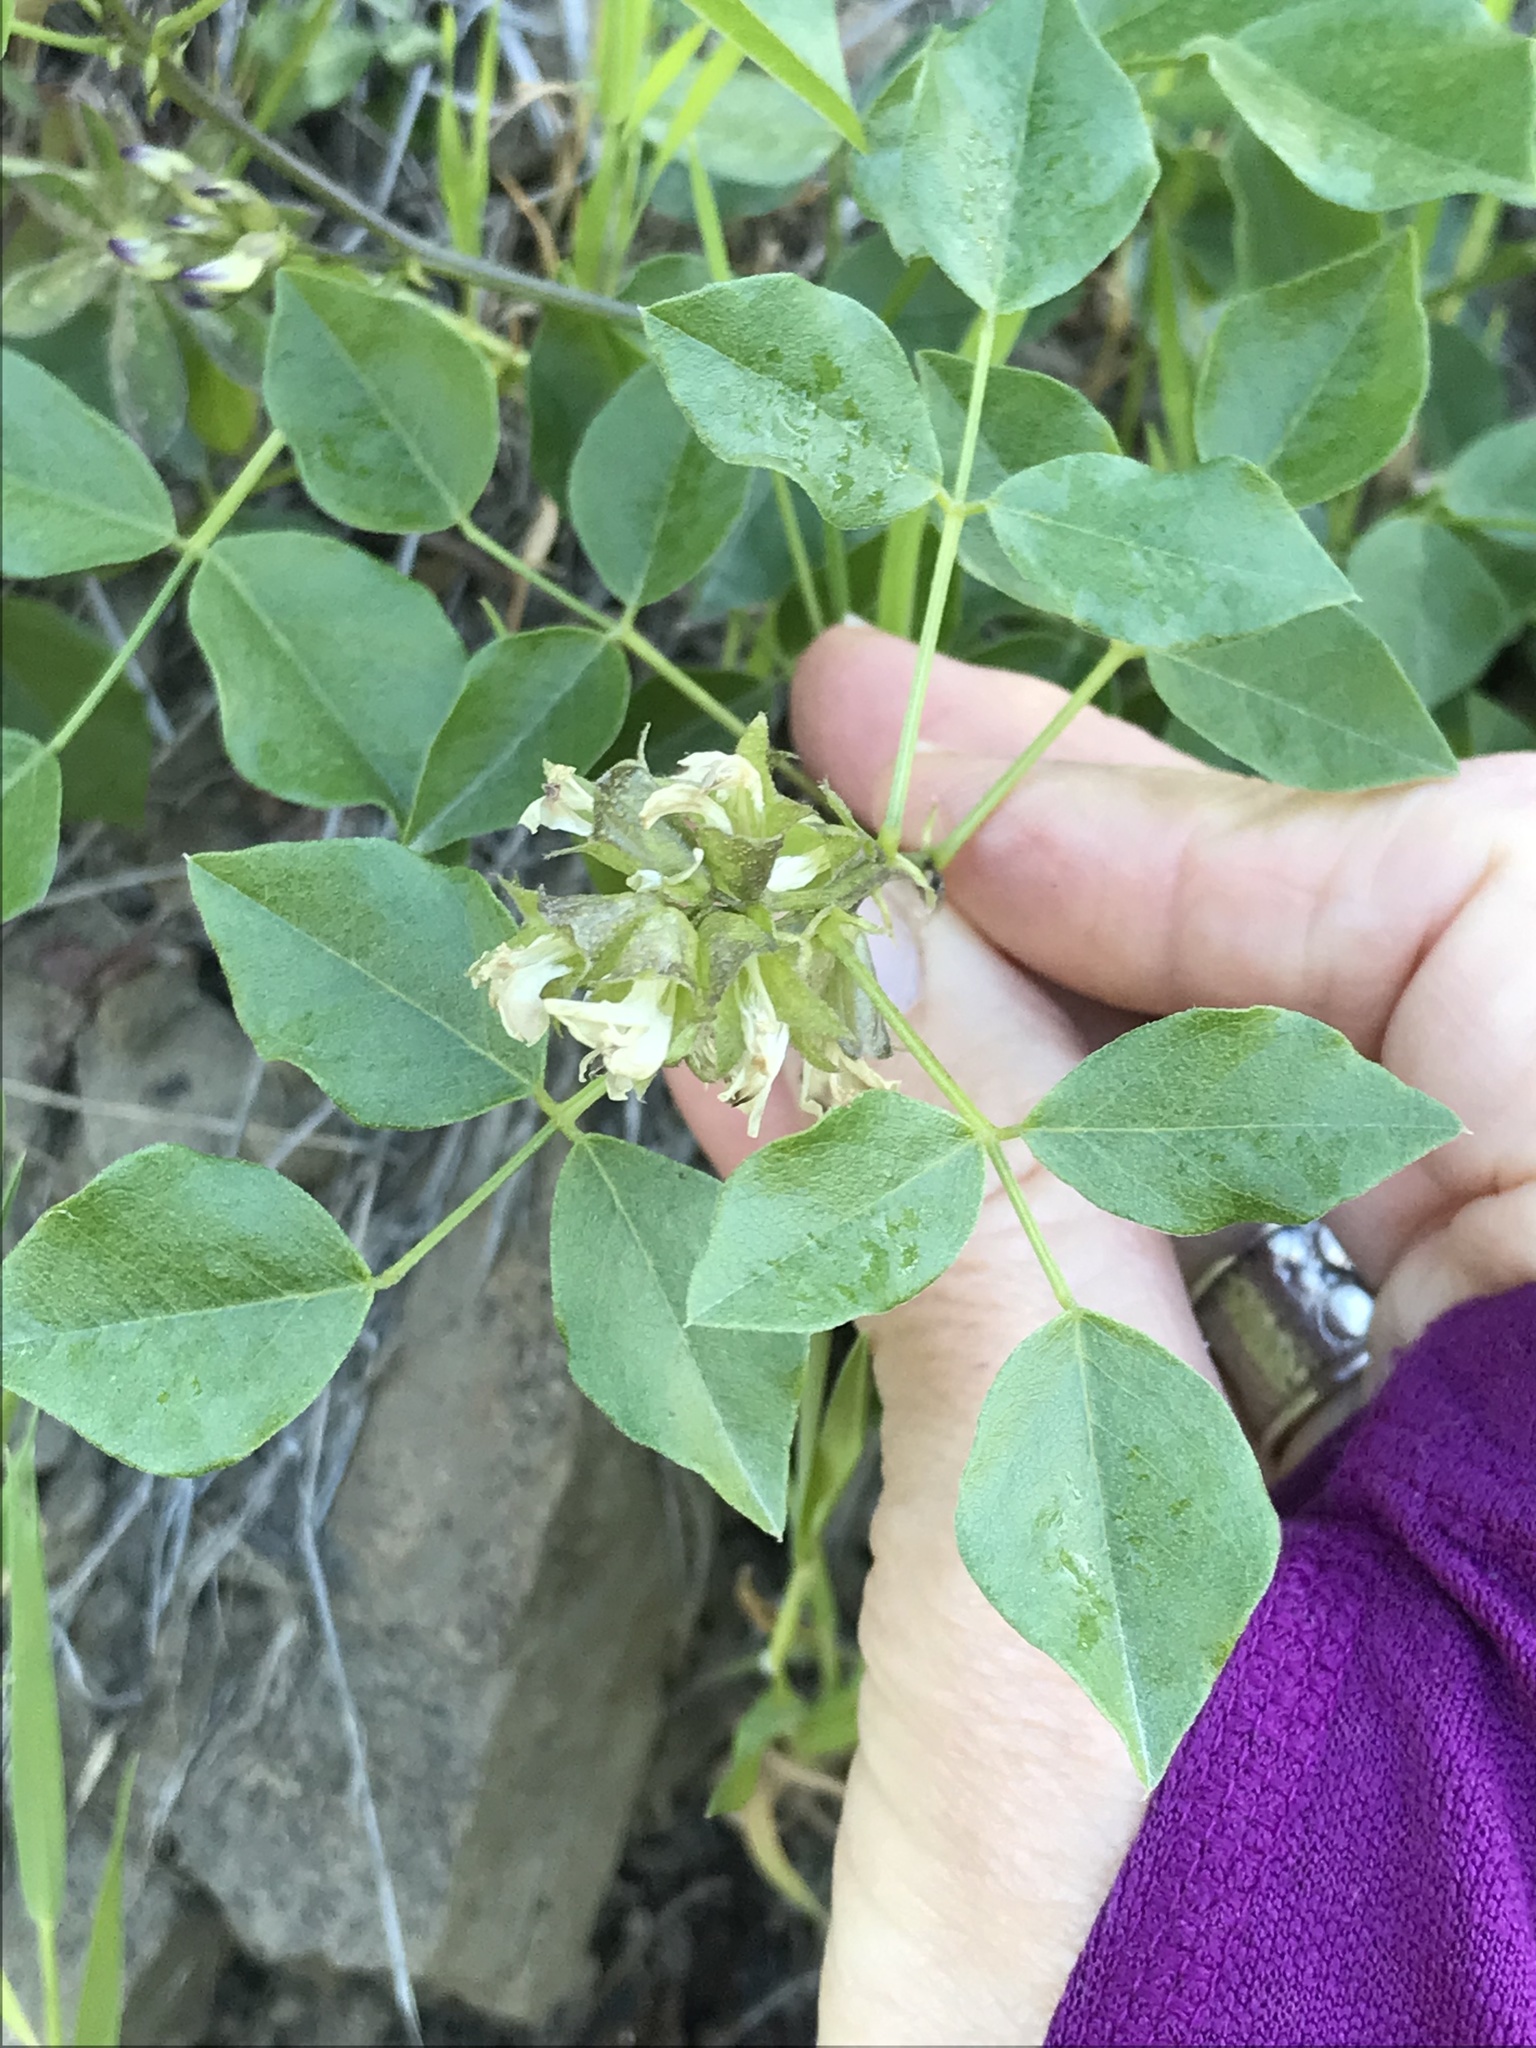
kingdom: Plantae
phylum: Tracheophyta
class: Magnoliopsida
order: Fabales
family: Fabaceae
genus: Rupertia
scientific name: Rupertia physodes
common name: California-tea
